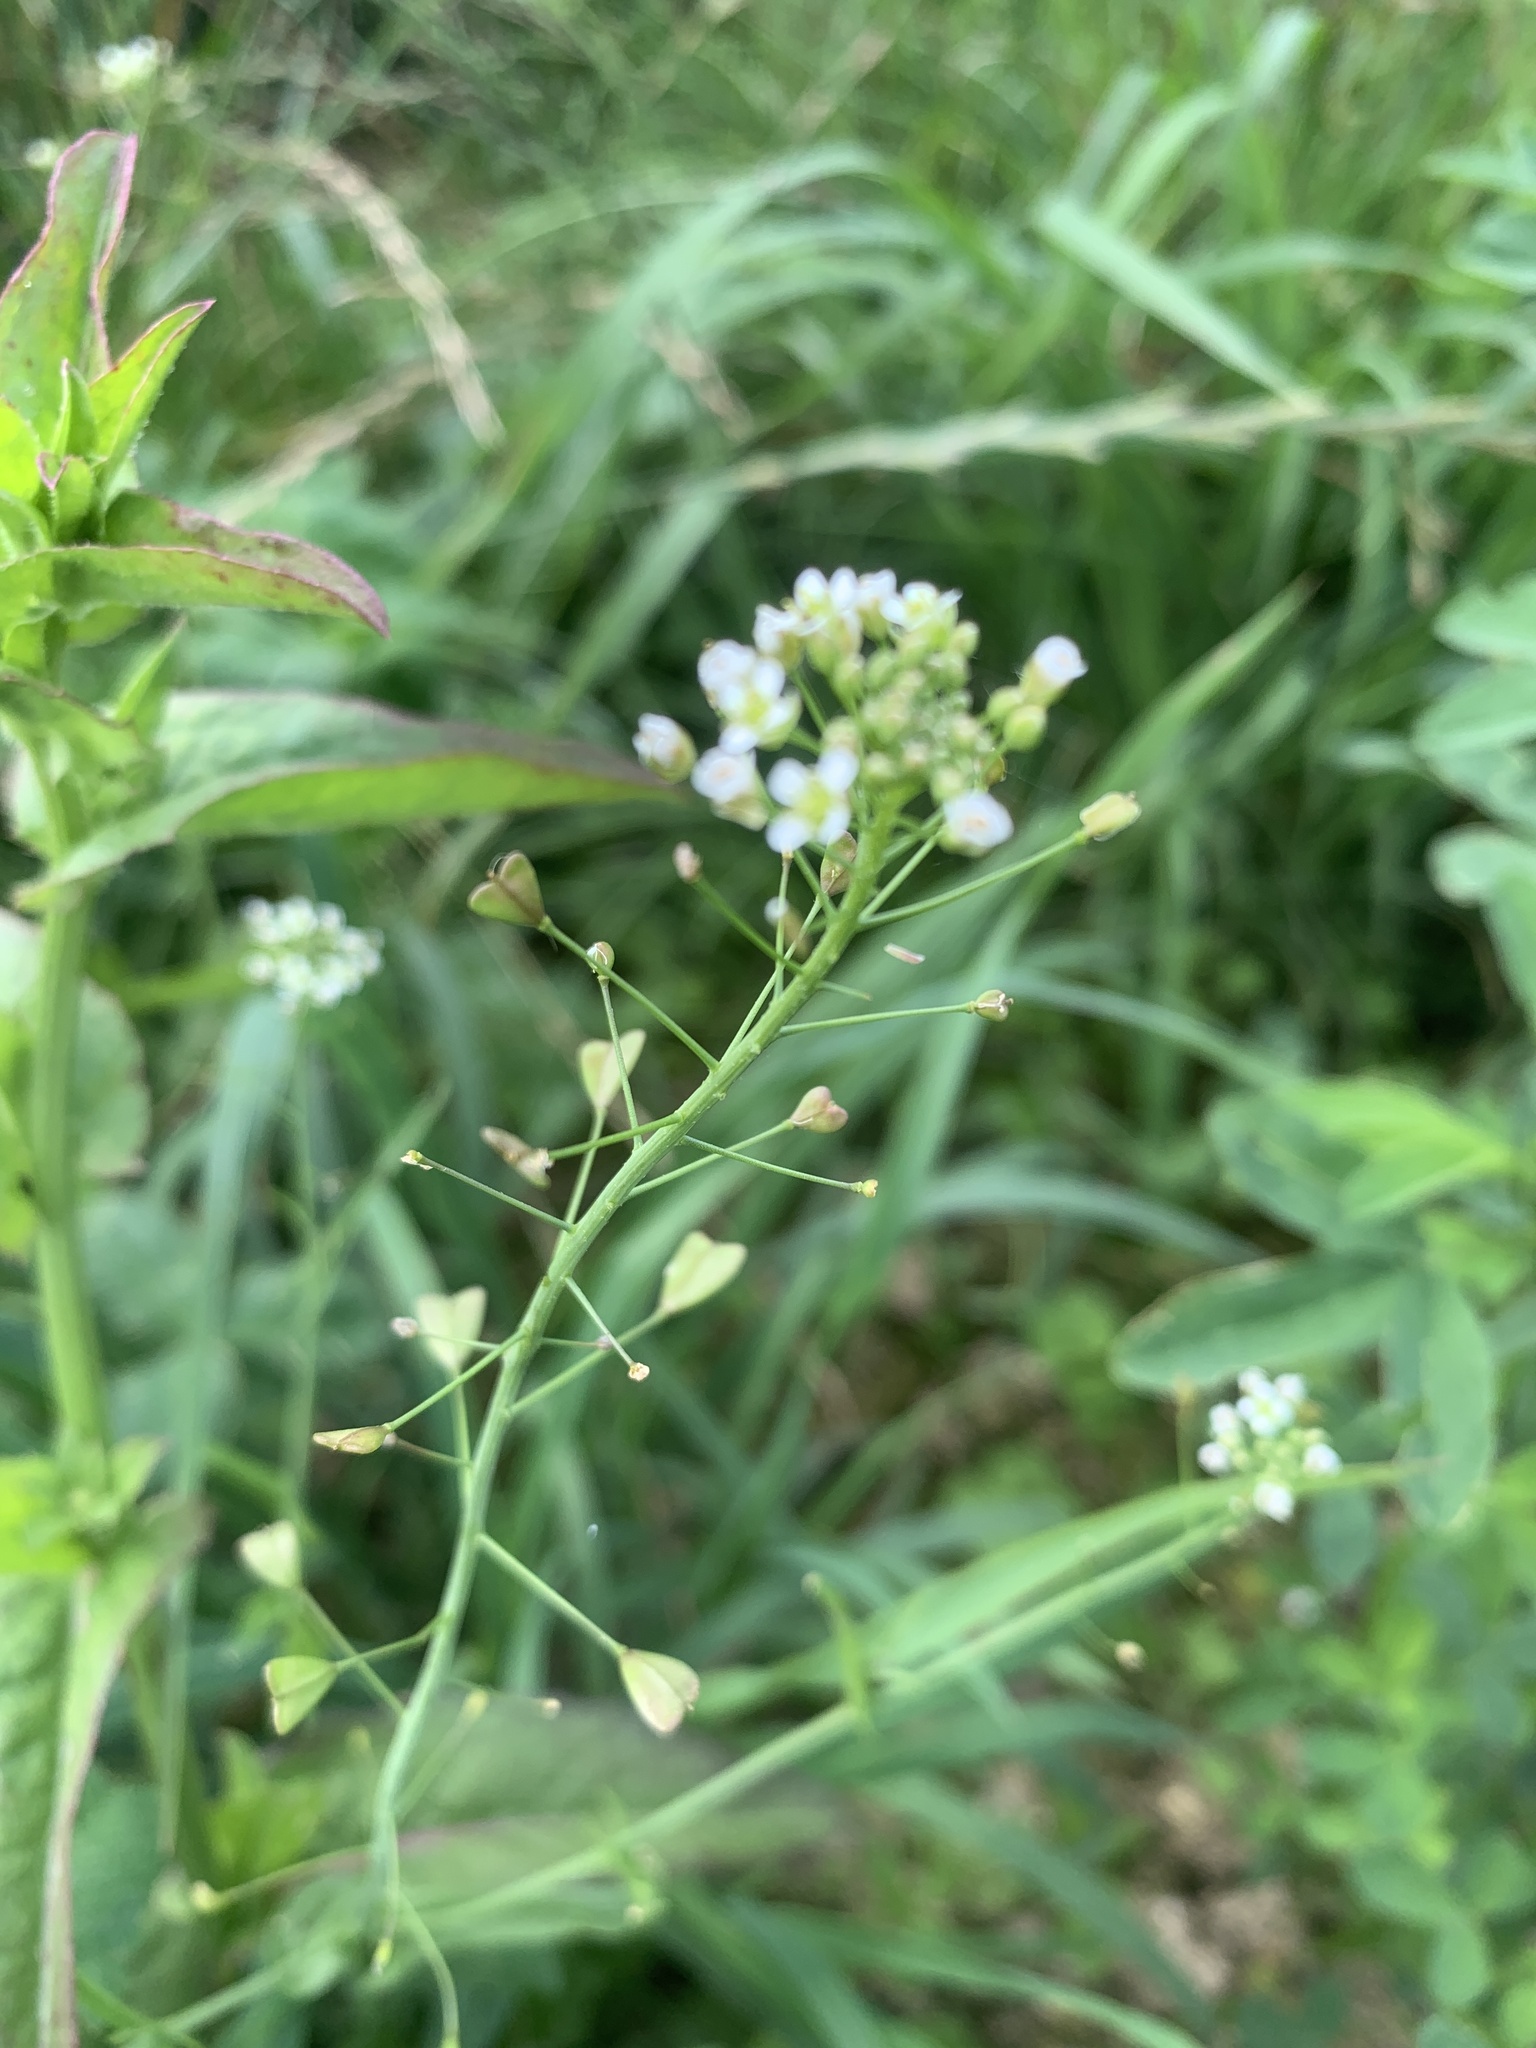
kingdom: Plantae
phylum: Tracheophyta
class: Magnoliopsida
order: Brassicales
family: Brassicaceae
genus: Capsella
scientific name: Capsella bursa-pastoris
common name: Shepherd's purse
